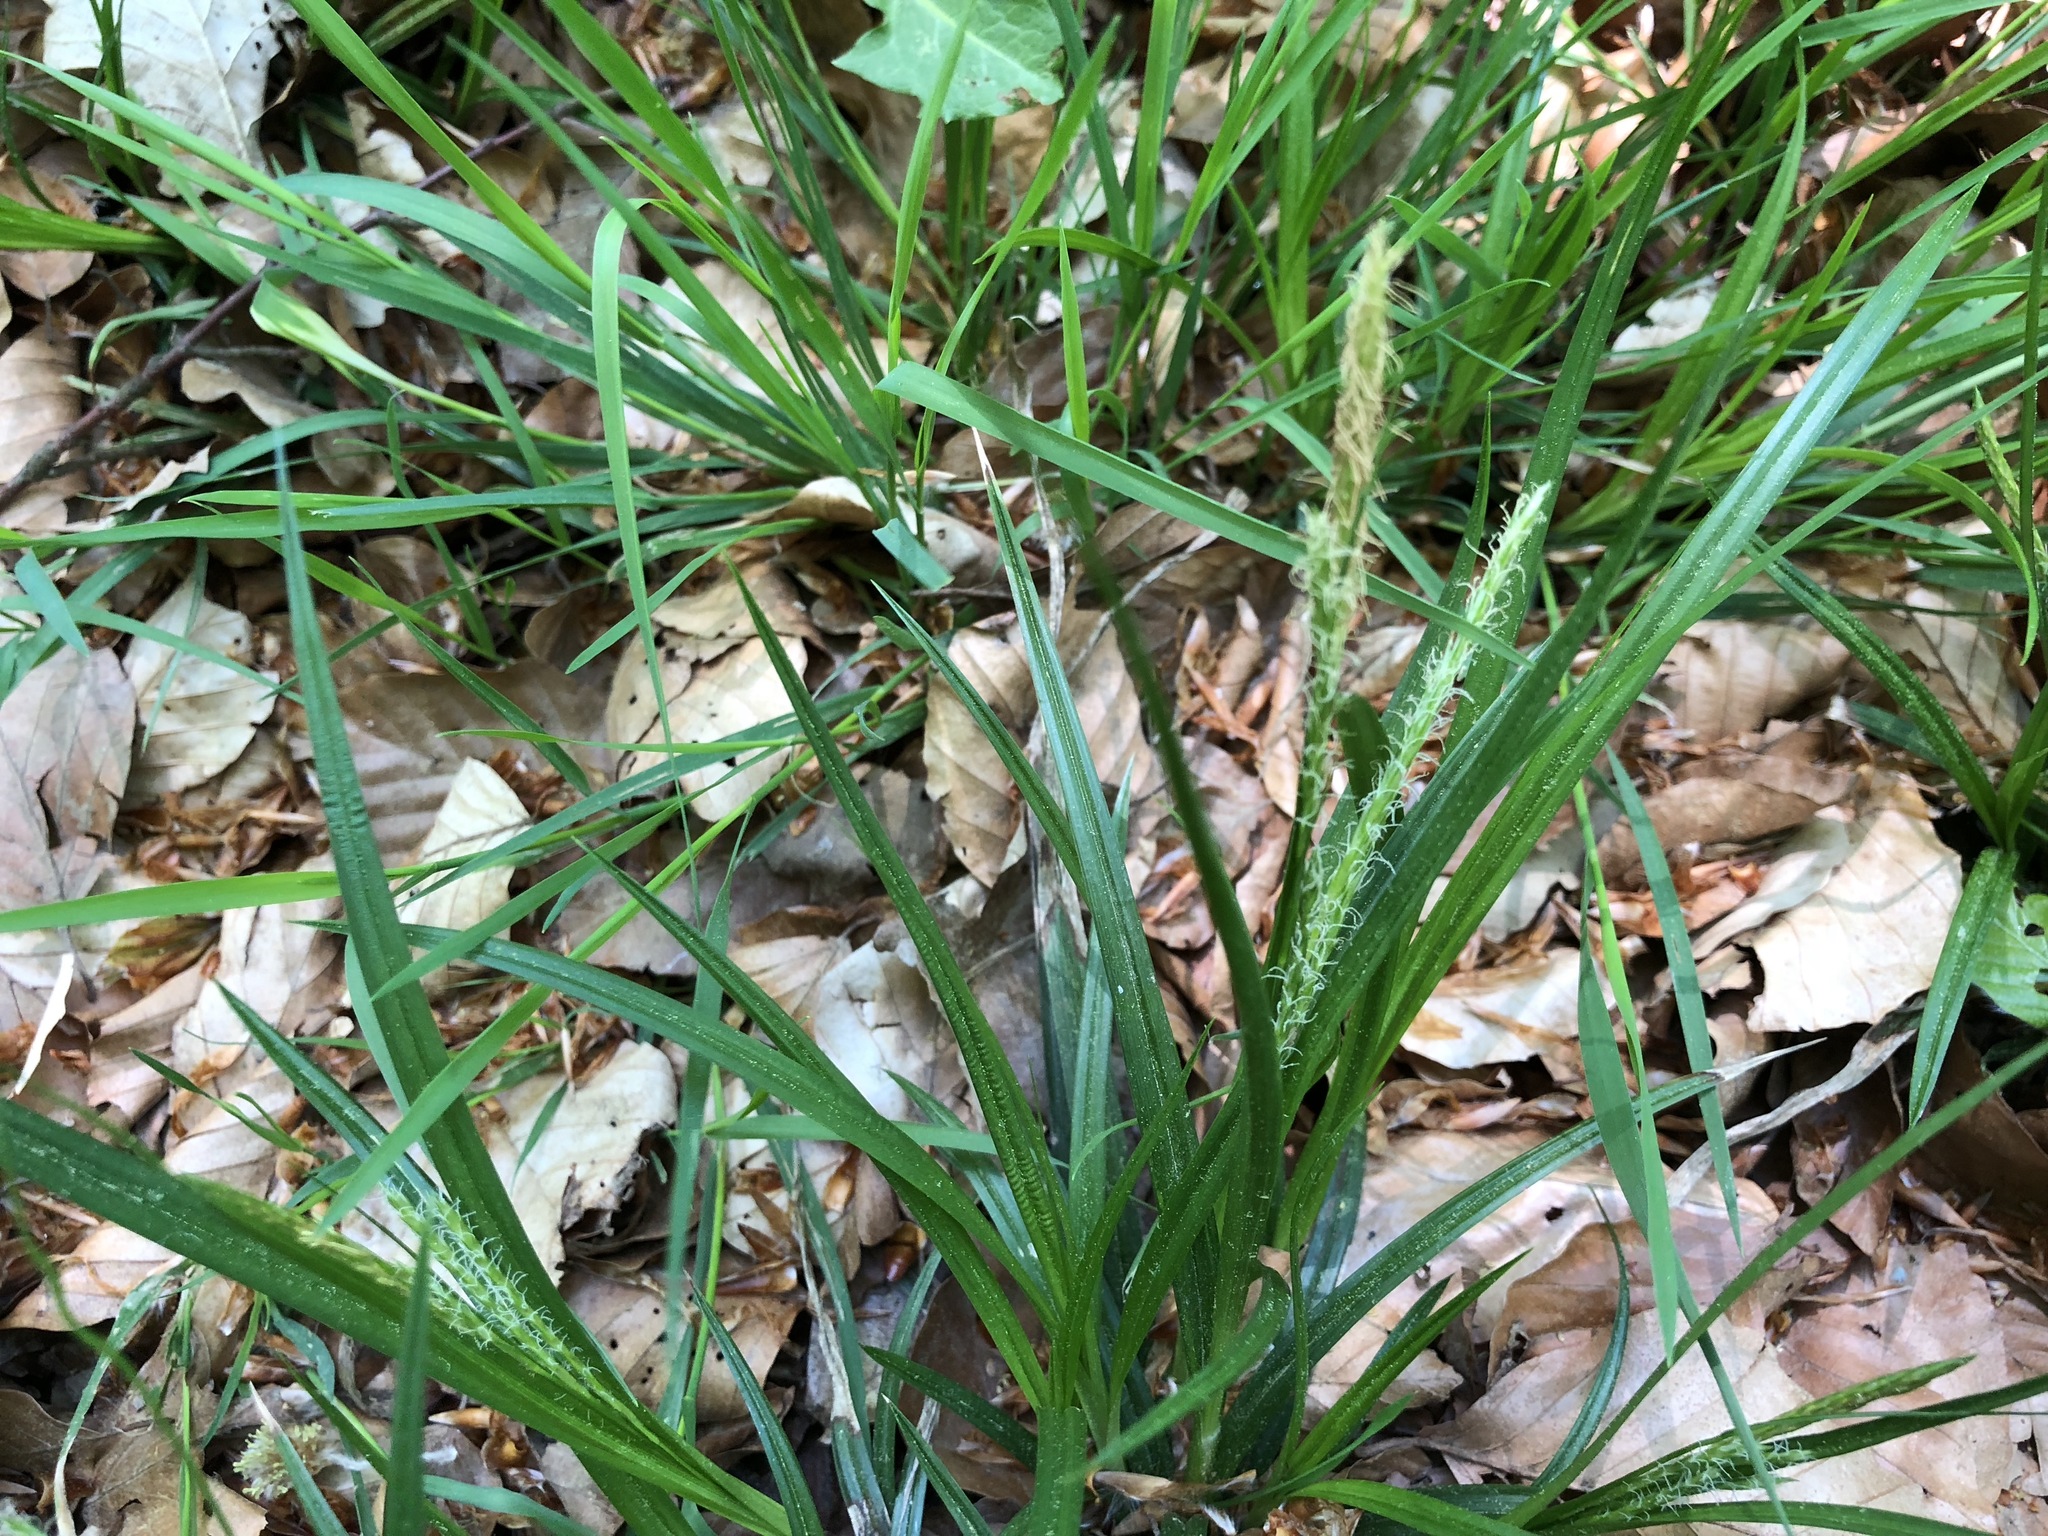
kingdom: Plantae
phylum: Tracheophyta
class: Liliopsida
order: Poales
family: Cyperaceae
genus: Carex
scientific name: Carex sylvatica
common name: Wood-sedge
